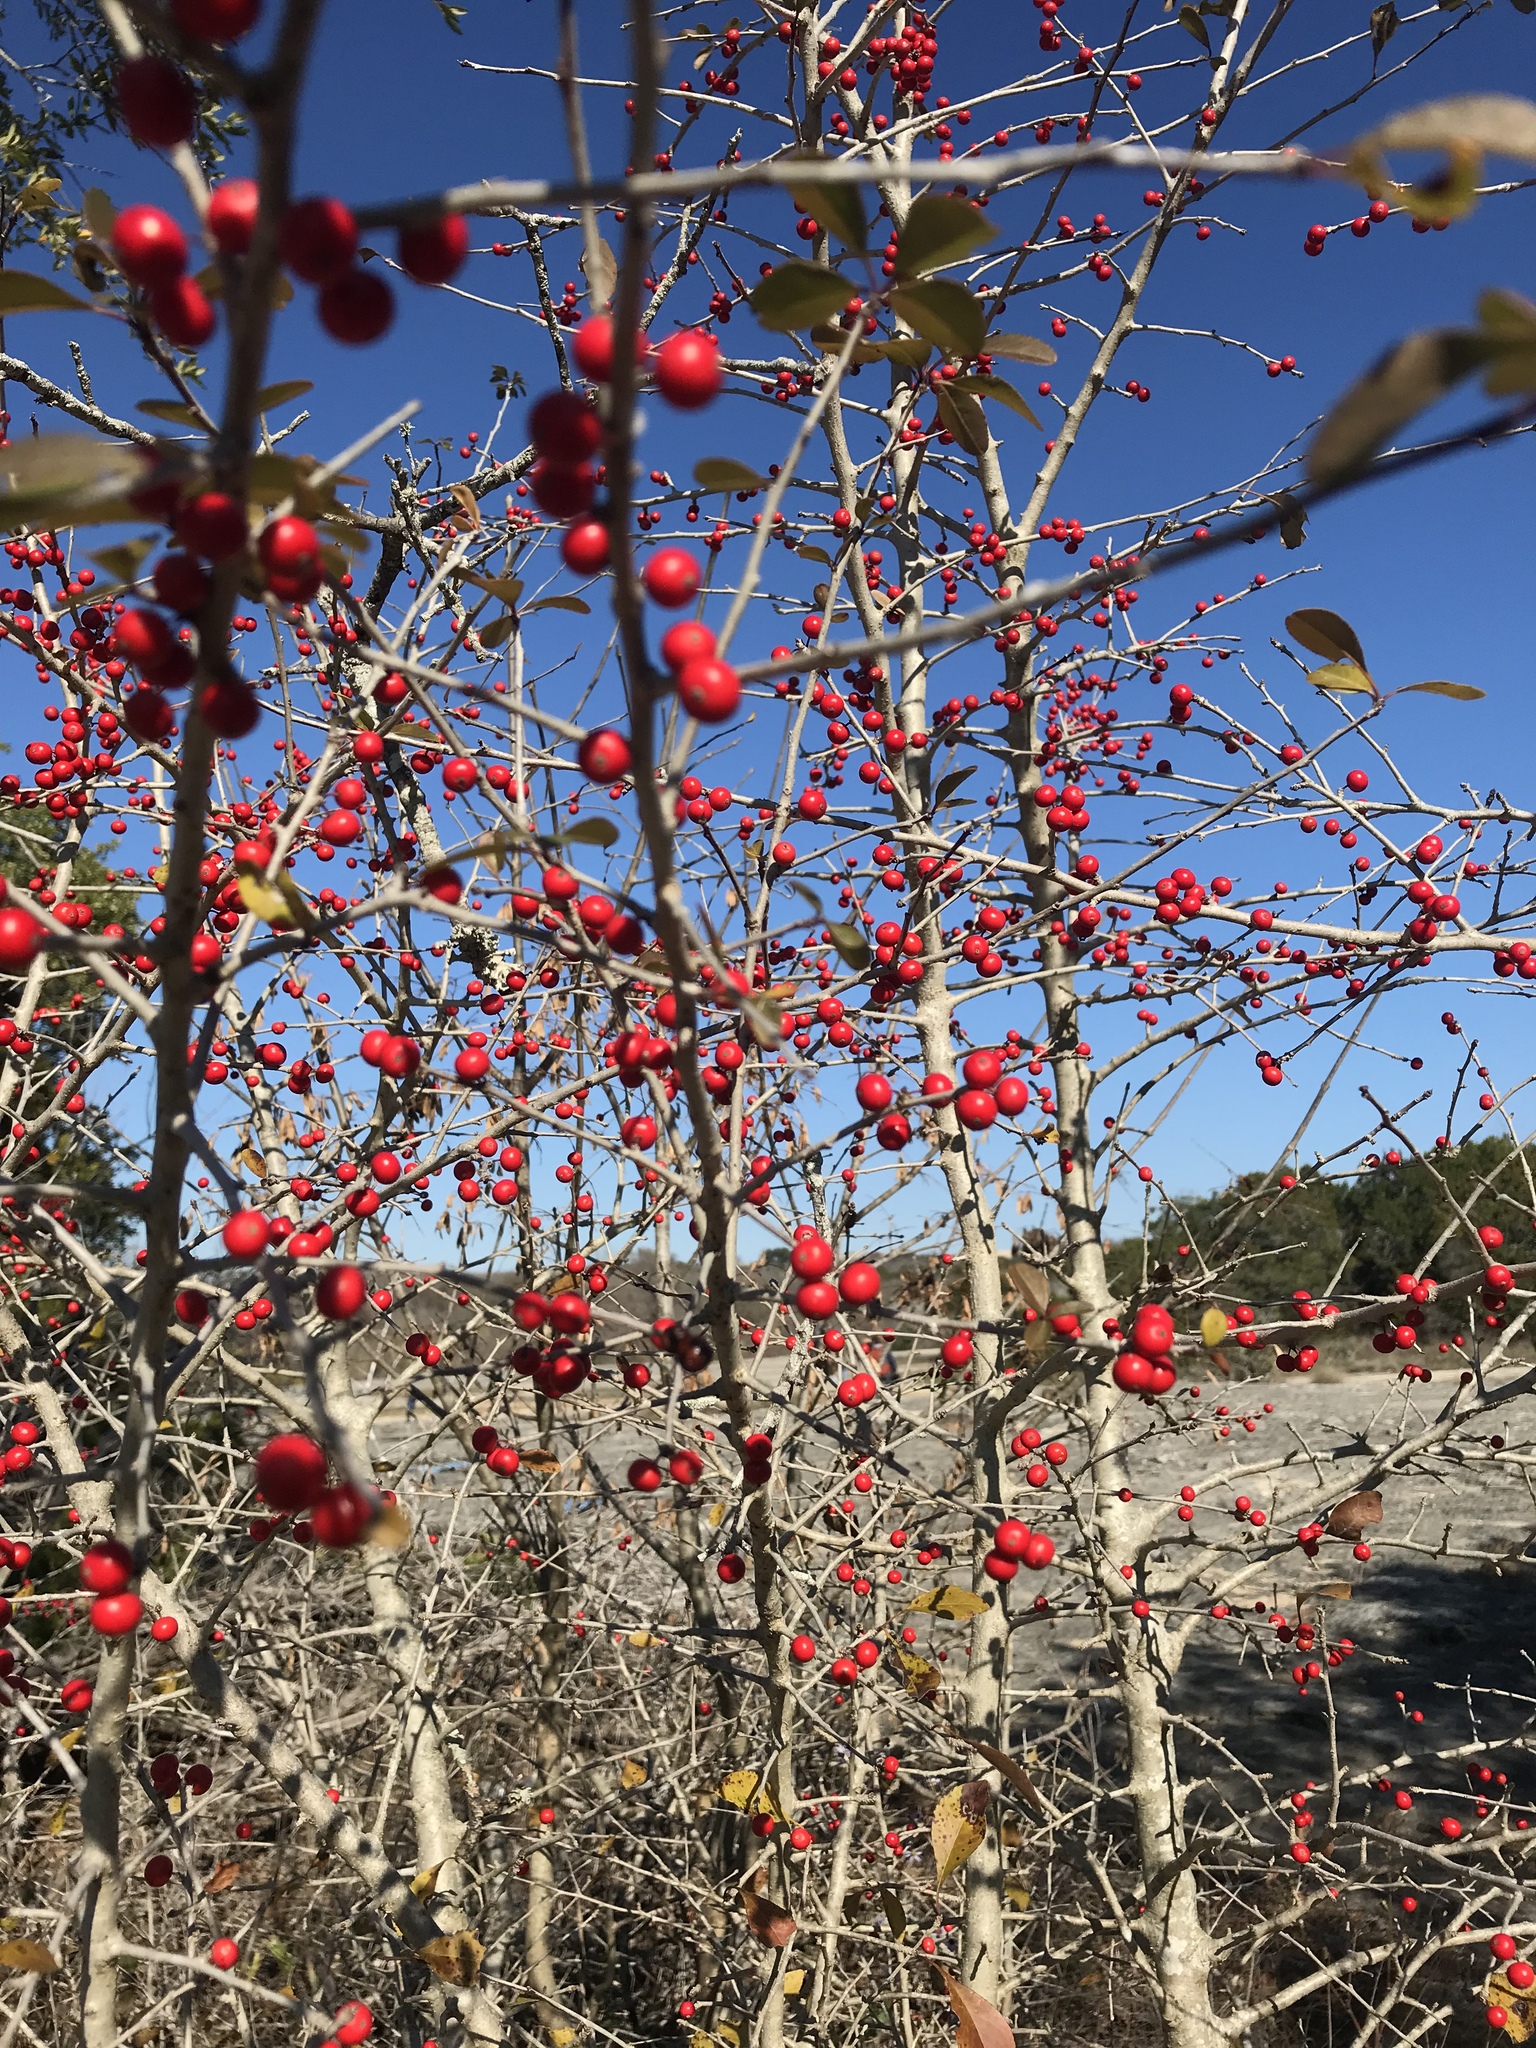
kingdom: Plantae
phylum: Tracheophyta
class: Magnoliopsida
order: Aquifoliales
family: Aquifoliaceae
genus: Ilex
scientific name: Ilex decidua
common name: Possum-haw
